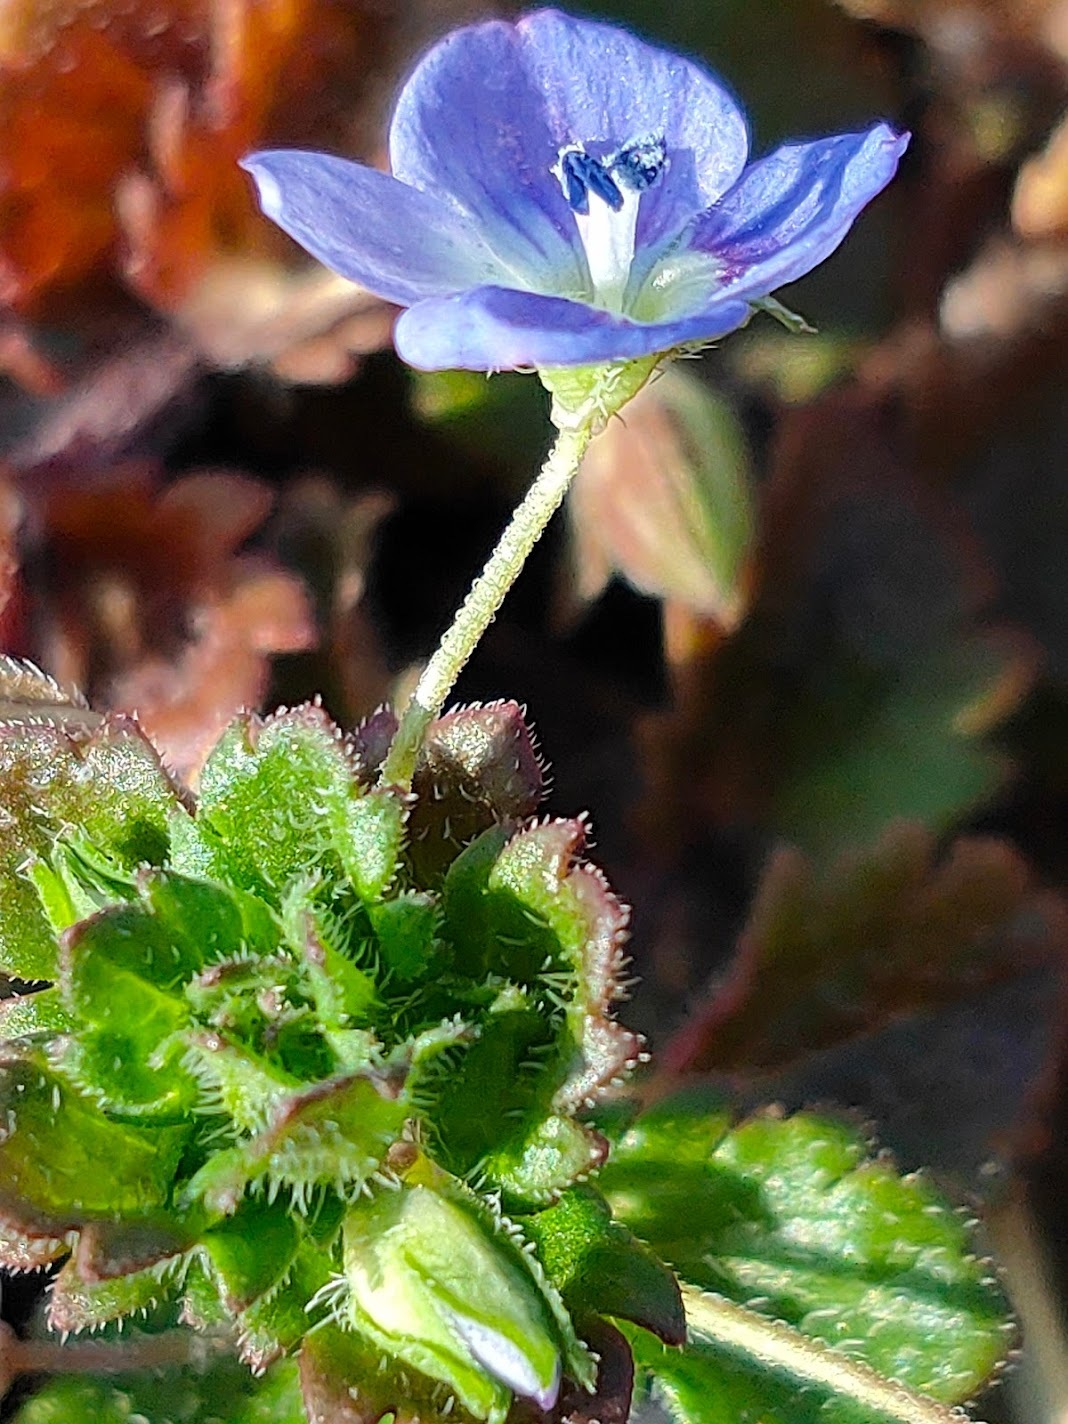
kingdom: Plantae
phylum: Tracheophyta
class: Magnoliopsida
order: Lamiales
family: Plantaginaceae
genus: Veronica
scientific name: Veronica persica
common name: Common field-speedwell
